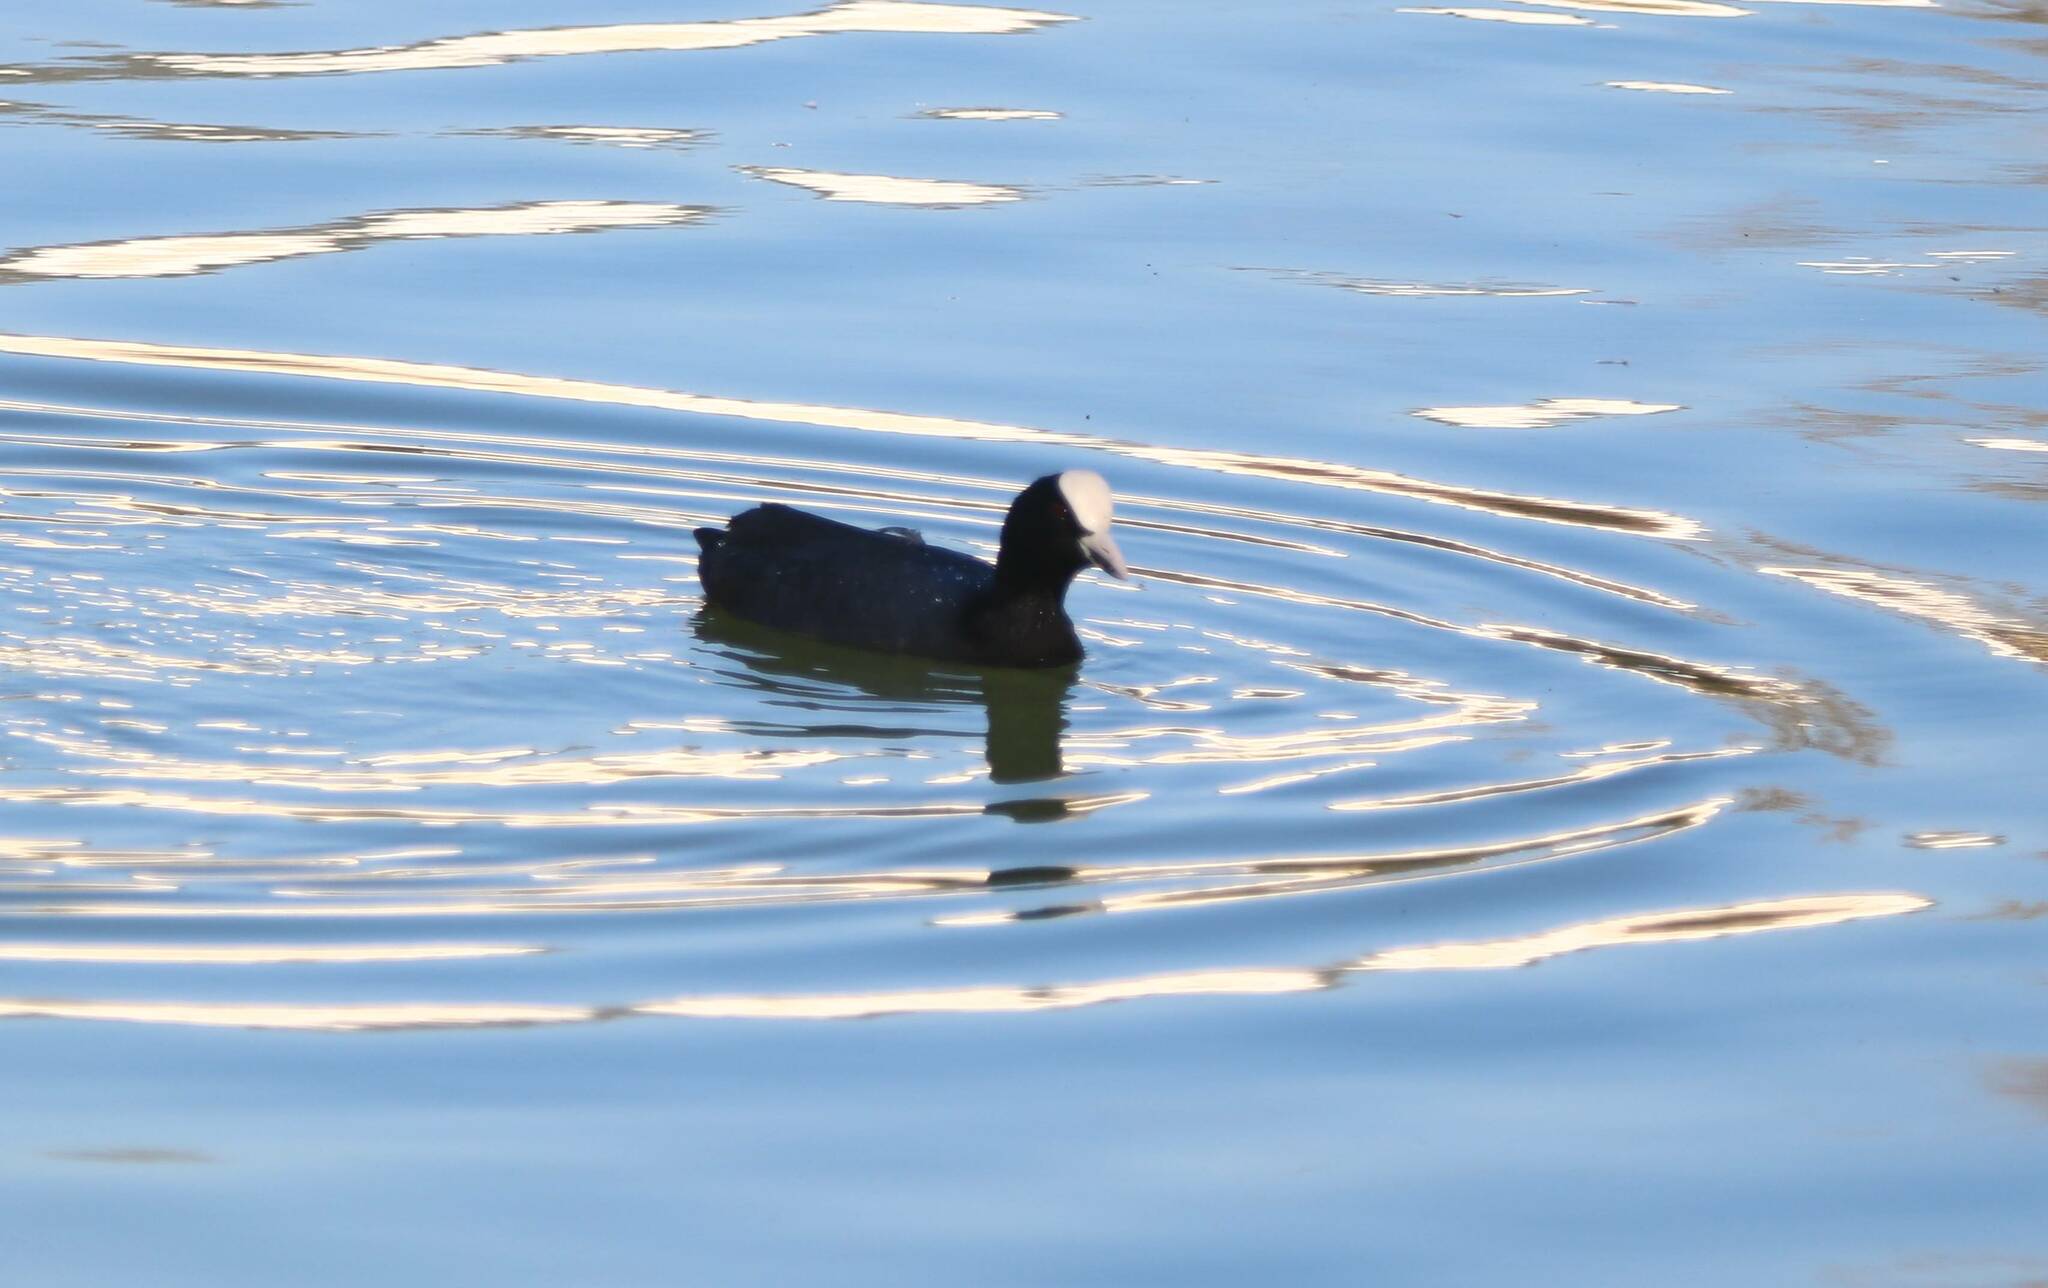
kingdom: Animalia
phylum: Chordata
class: Aves
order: Gruiformes
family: Rallidae
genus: Fulica
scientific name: Fulica atra
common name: Eurasian coot
